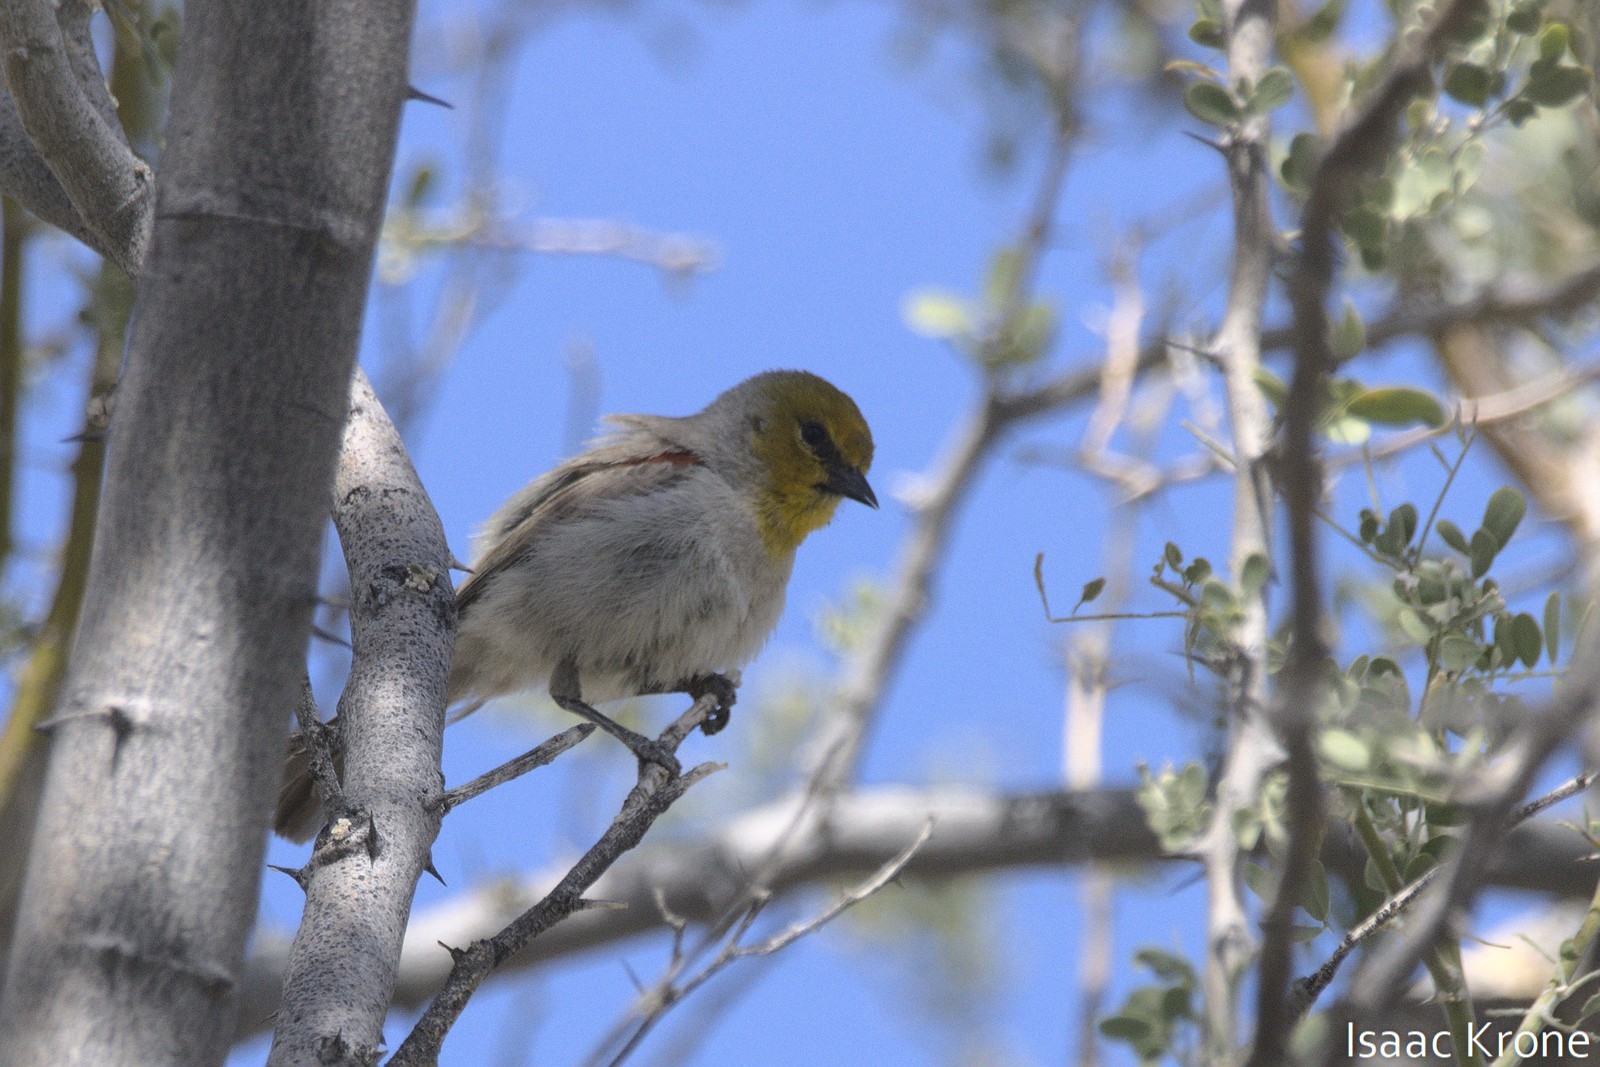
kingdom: Animalia
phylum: Chordata
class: Aves
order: Passeriformes
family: Remizidae
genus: Auriparus
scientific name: Auriparus flaviceps
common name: Verdin
